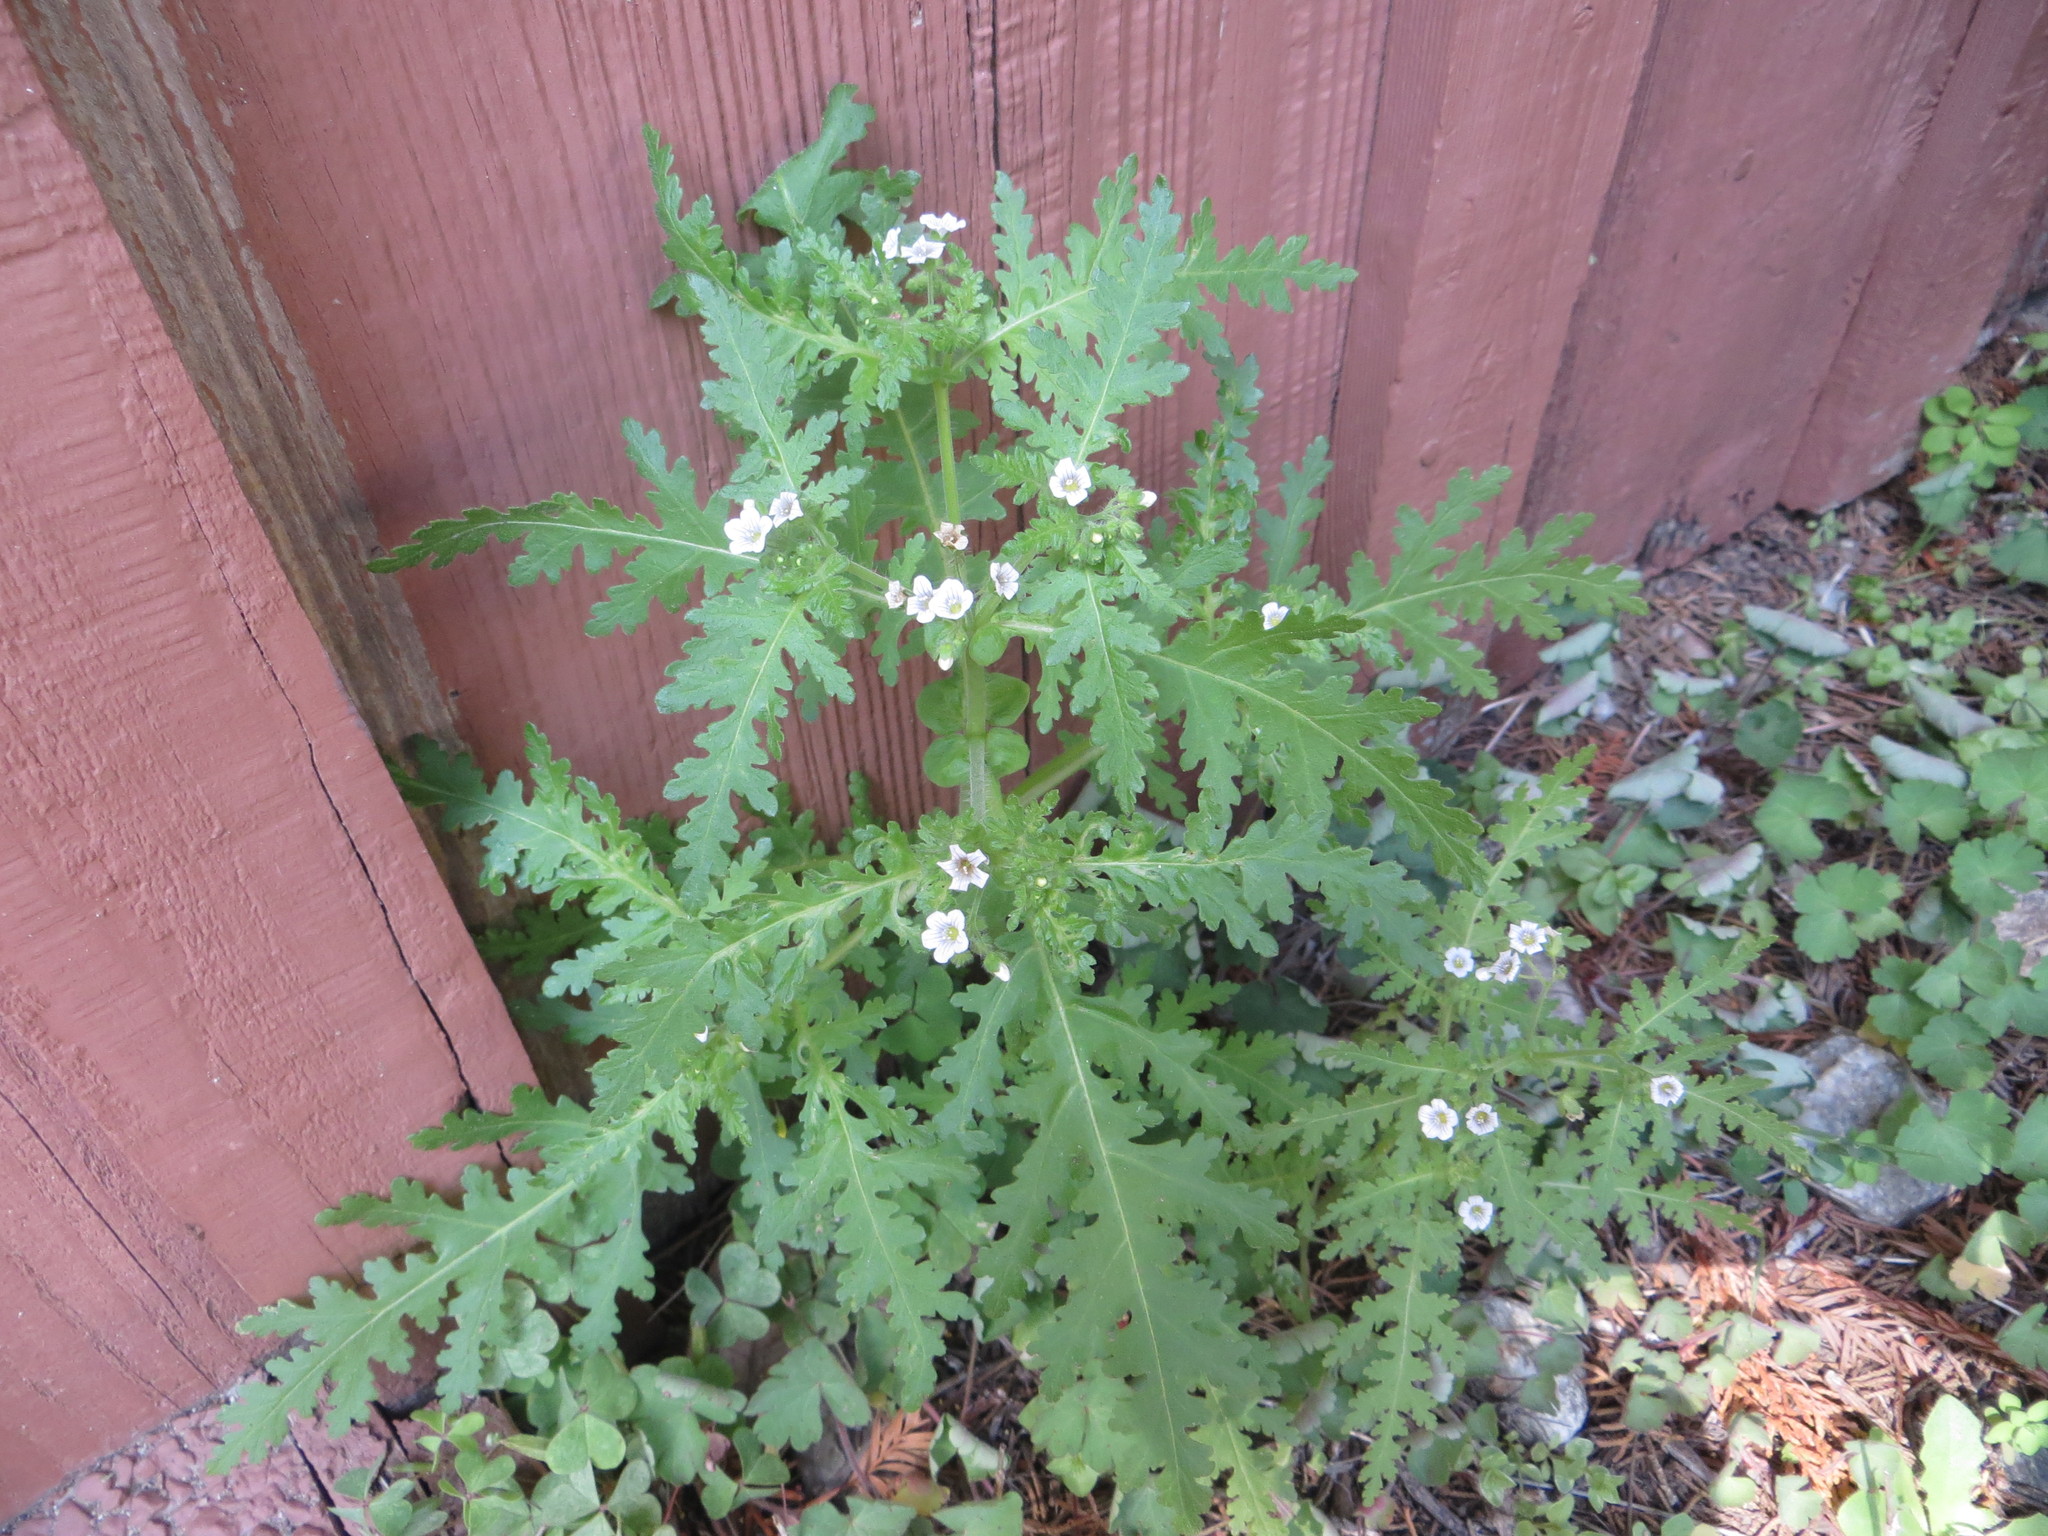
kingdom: Plantae
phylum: Tracheophyta
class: Magnoliopsida
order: Boraginales
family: Hydrophyllaceae
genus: Eucrypta
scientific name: Eucrypta chrysanthemifolia
